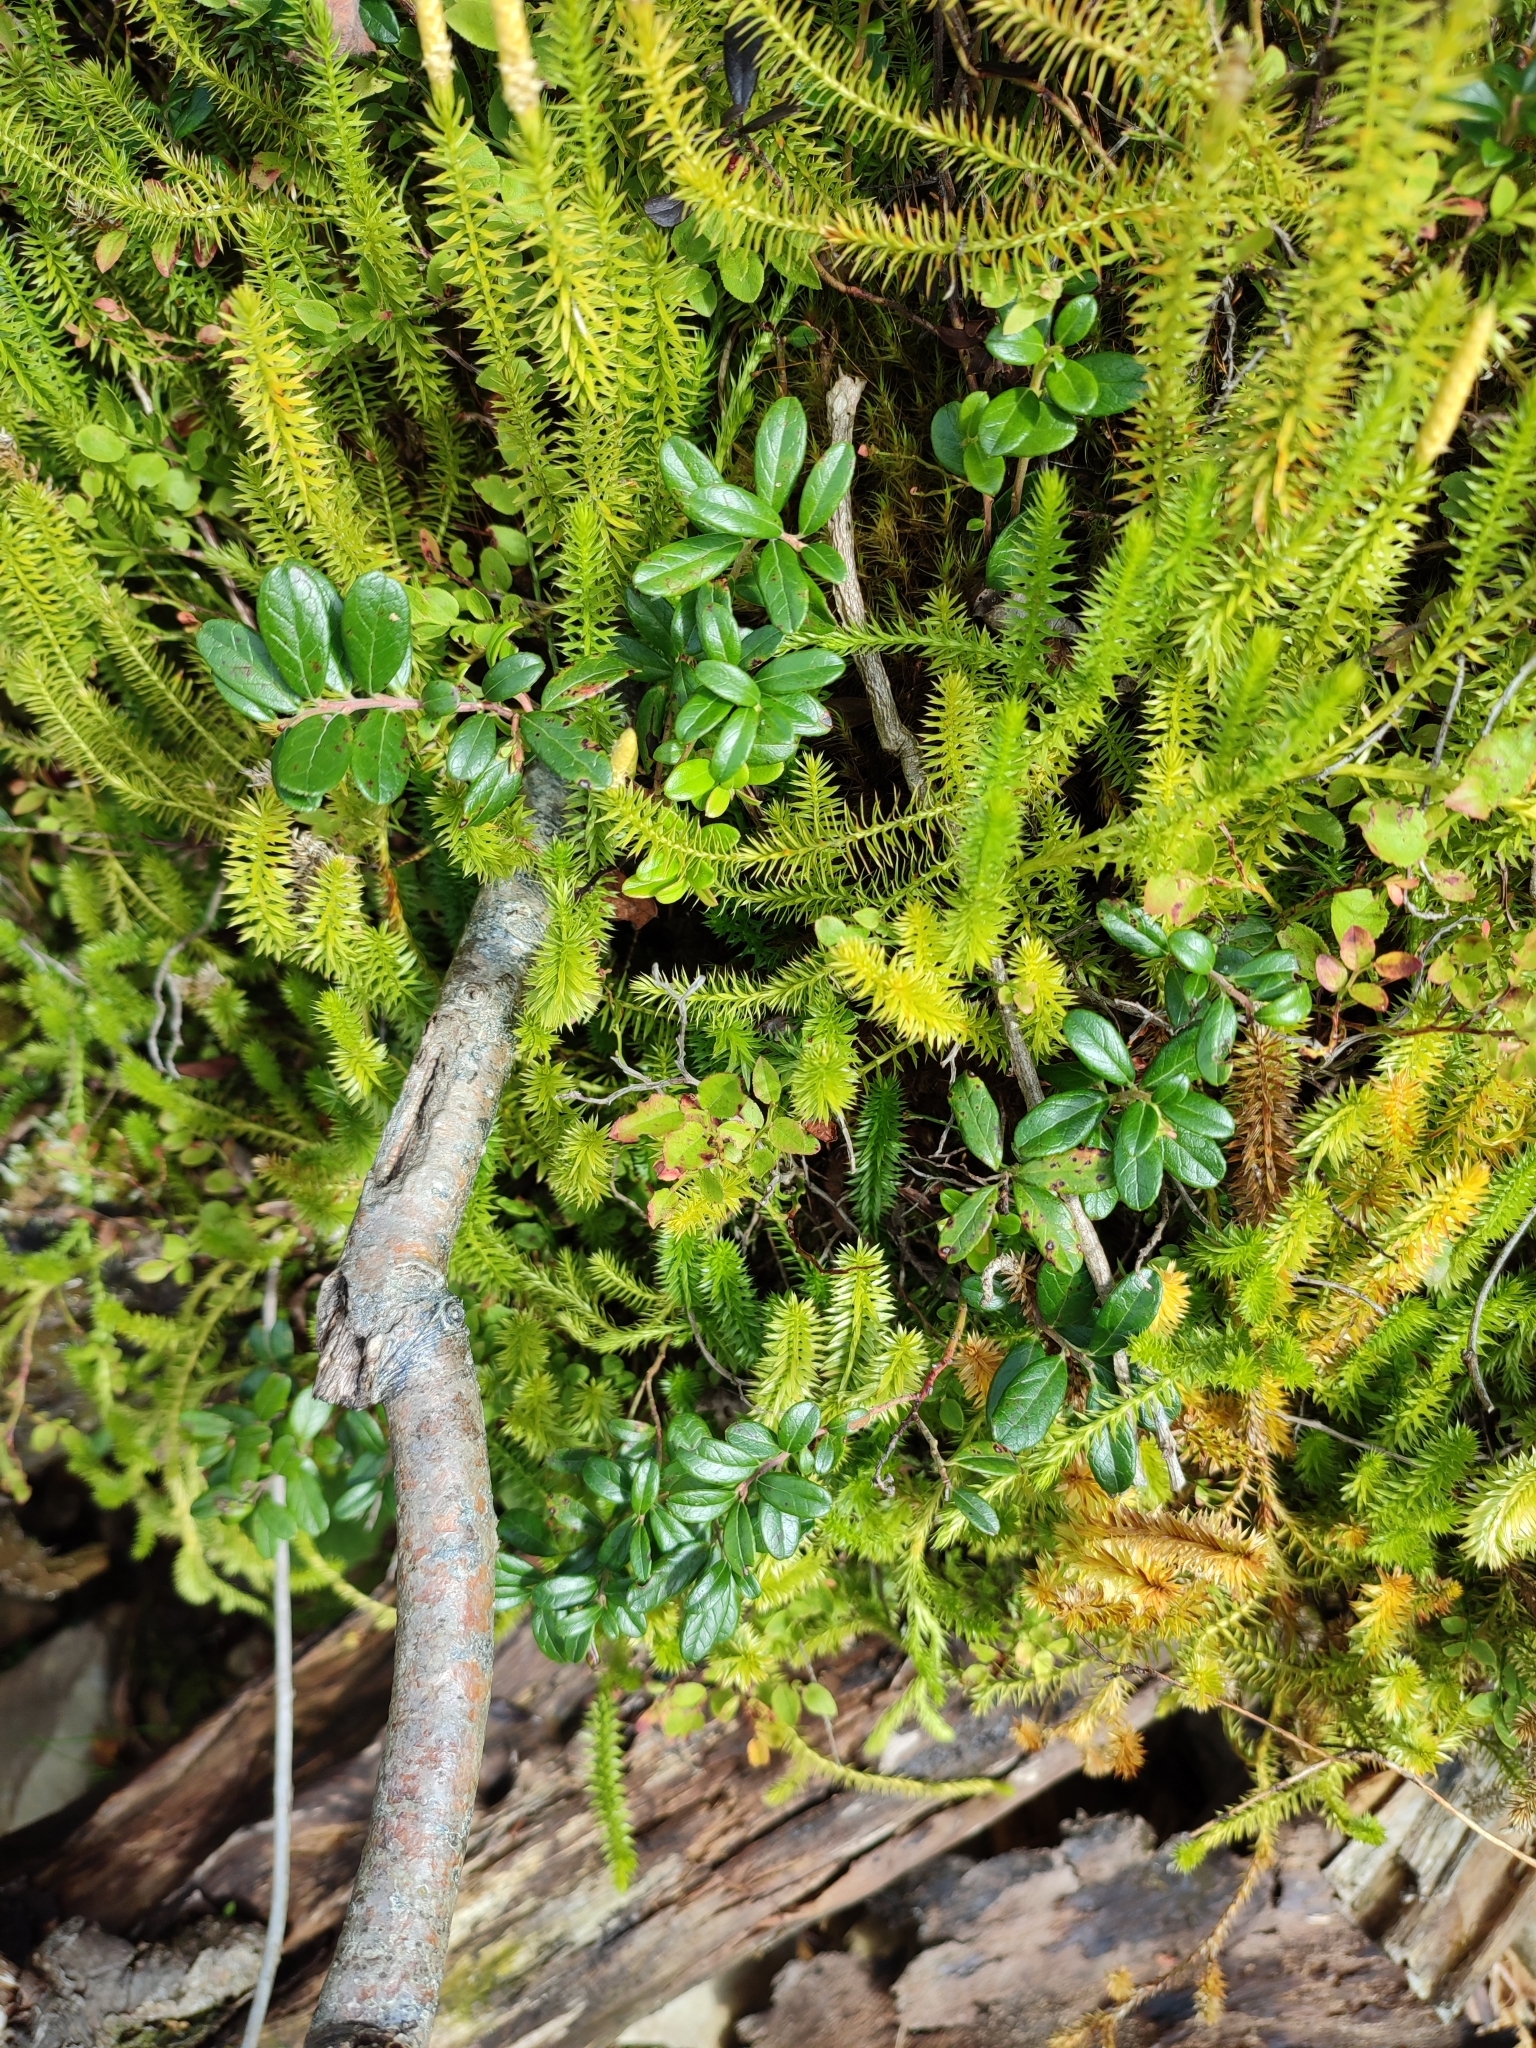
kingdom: Plantae
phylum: Tracheophyta
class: Magnoliopsida
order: Ericales
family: Ericaceae
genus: Vaccinium
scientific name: Vaccinium vitis-idaea
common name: Cowberry
